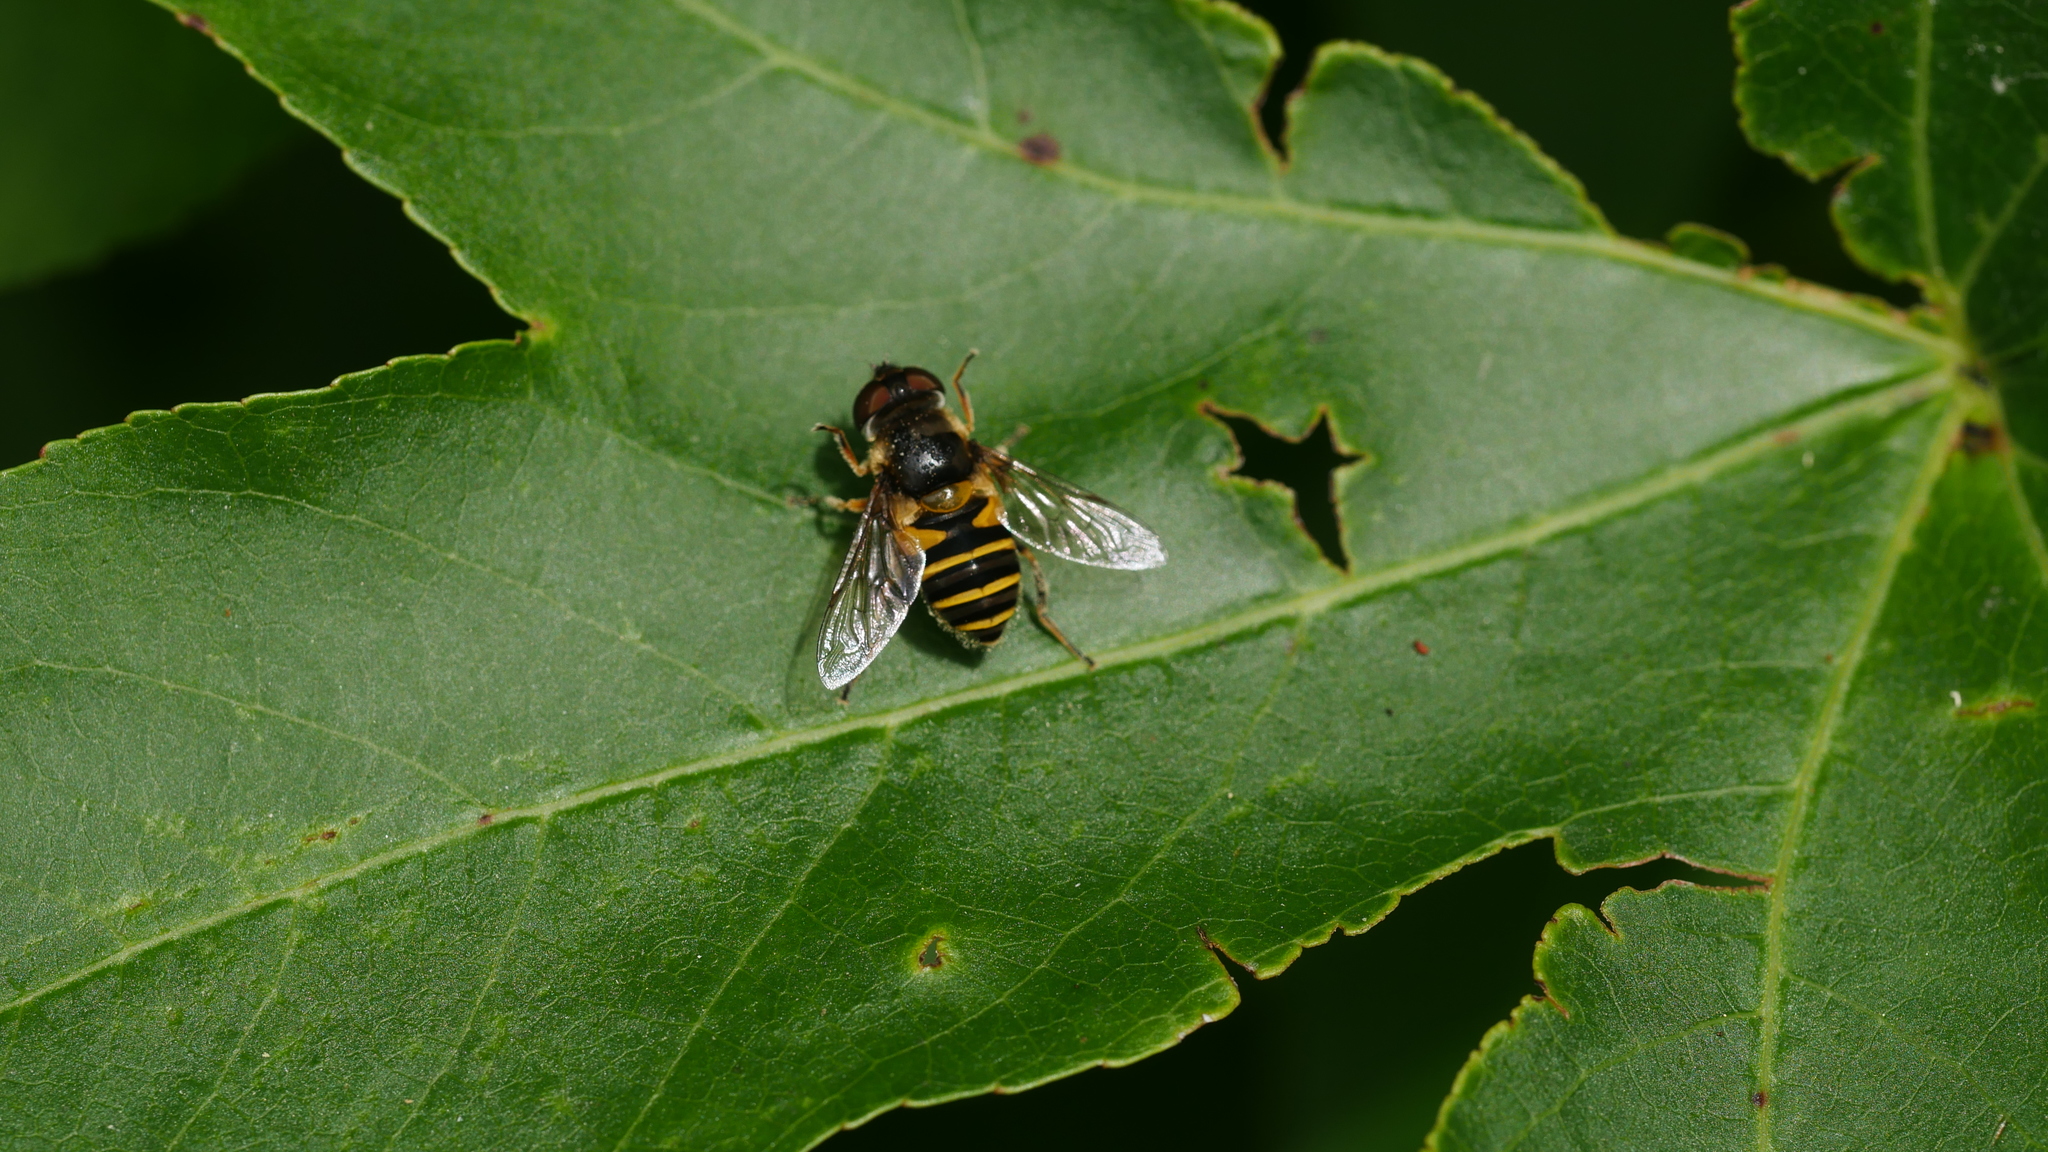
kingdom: Animalia
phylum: Arthropoda
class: Insecta
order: Diptera
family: Syrphidae
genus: Eristalis
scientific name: Eristalis transversa
